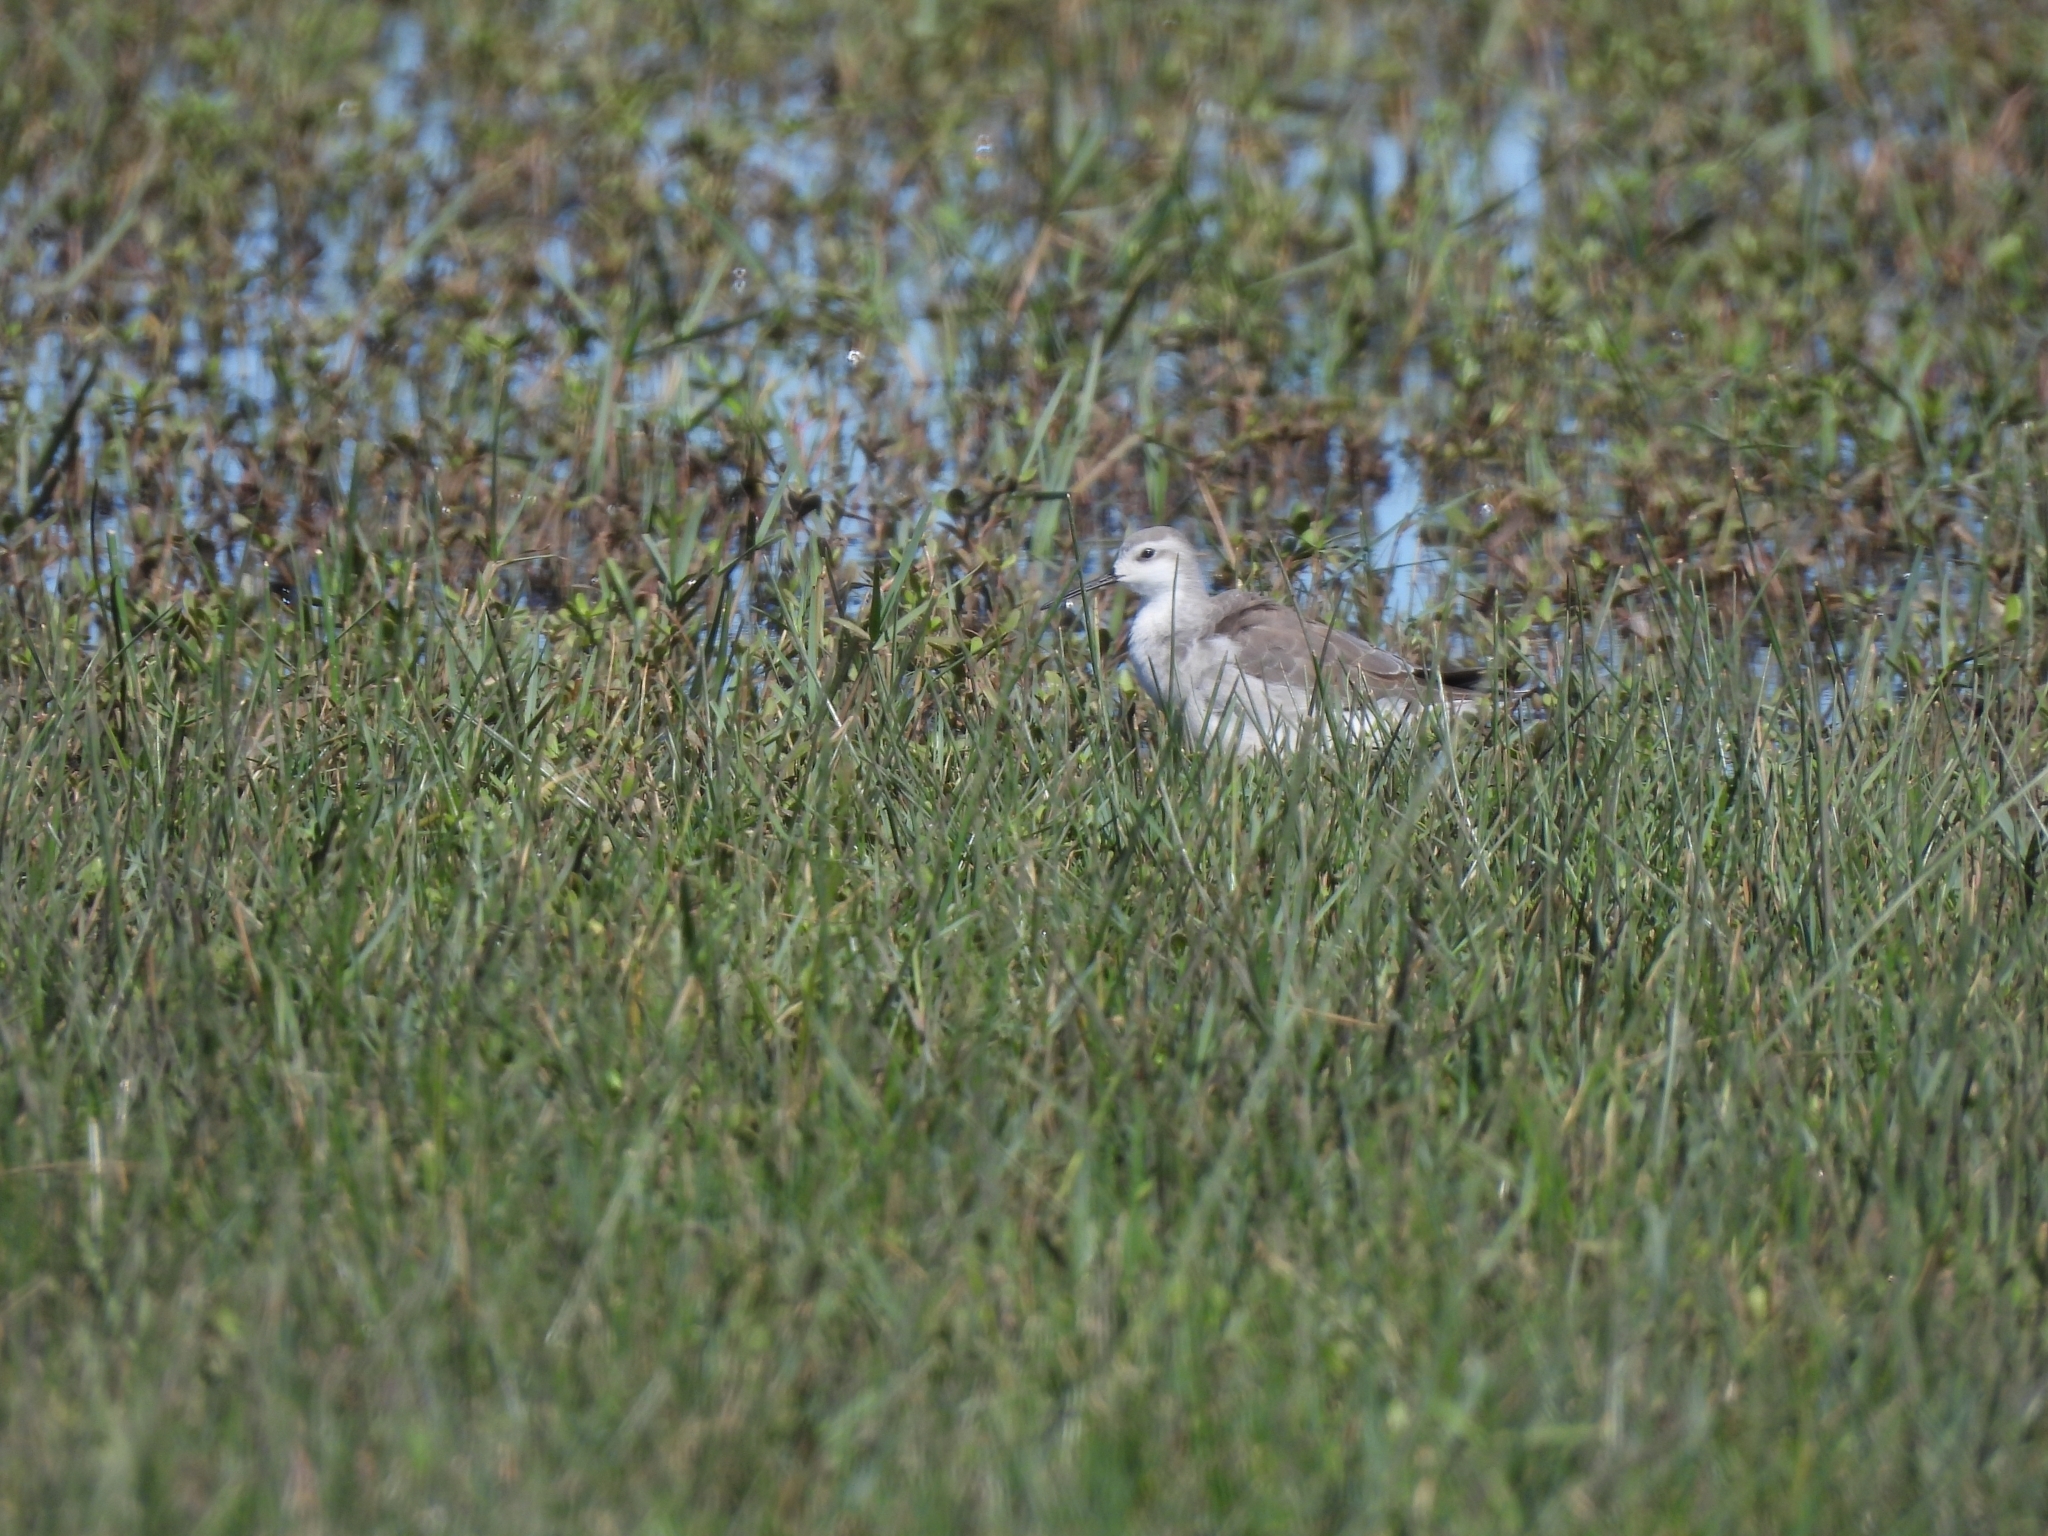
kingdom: Animalia
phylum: Chordata
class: Aves
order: Charadriiformes
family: Scolopacidae
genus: Phalaropus
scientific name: Phalaropus tricolor
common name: Wilson's phalarope
